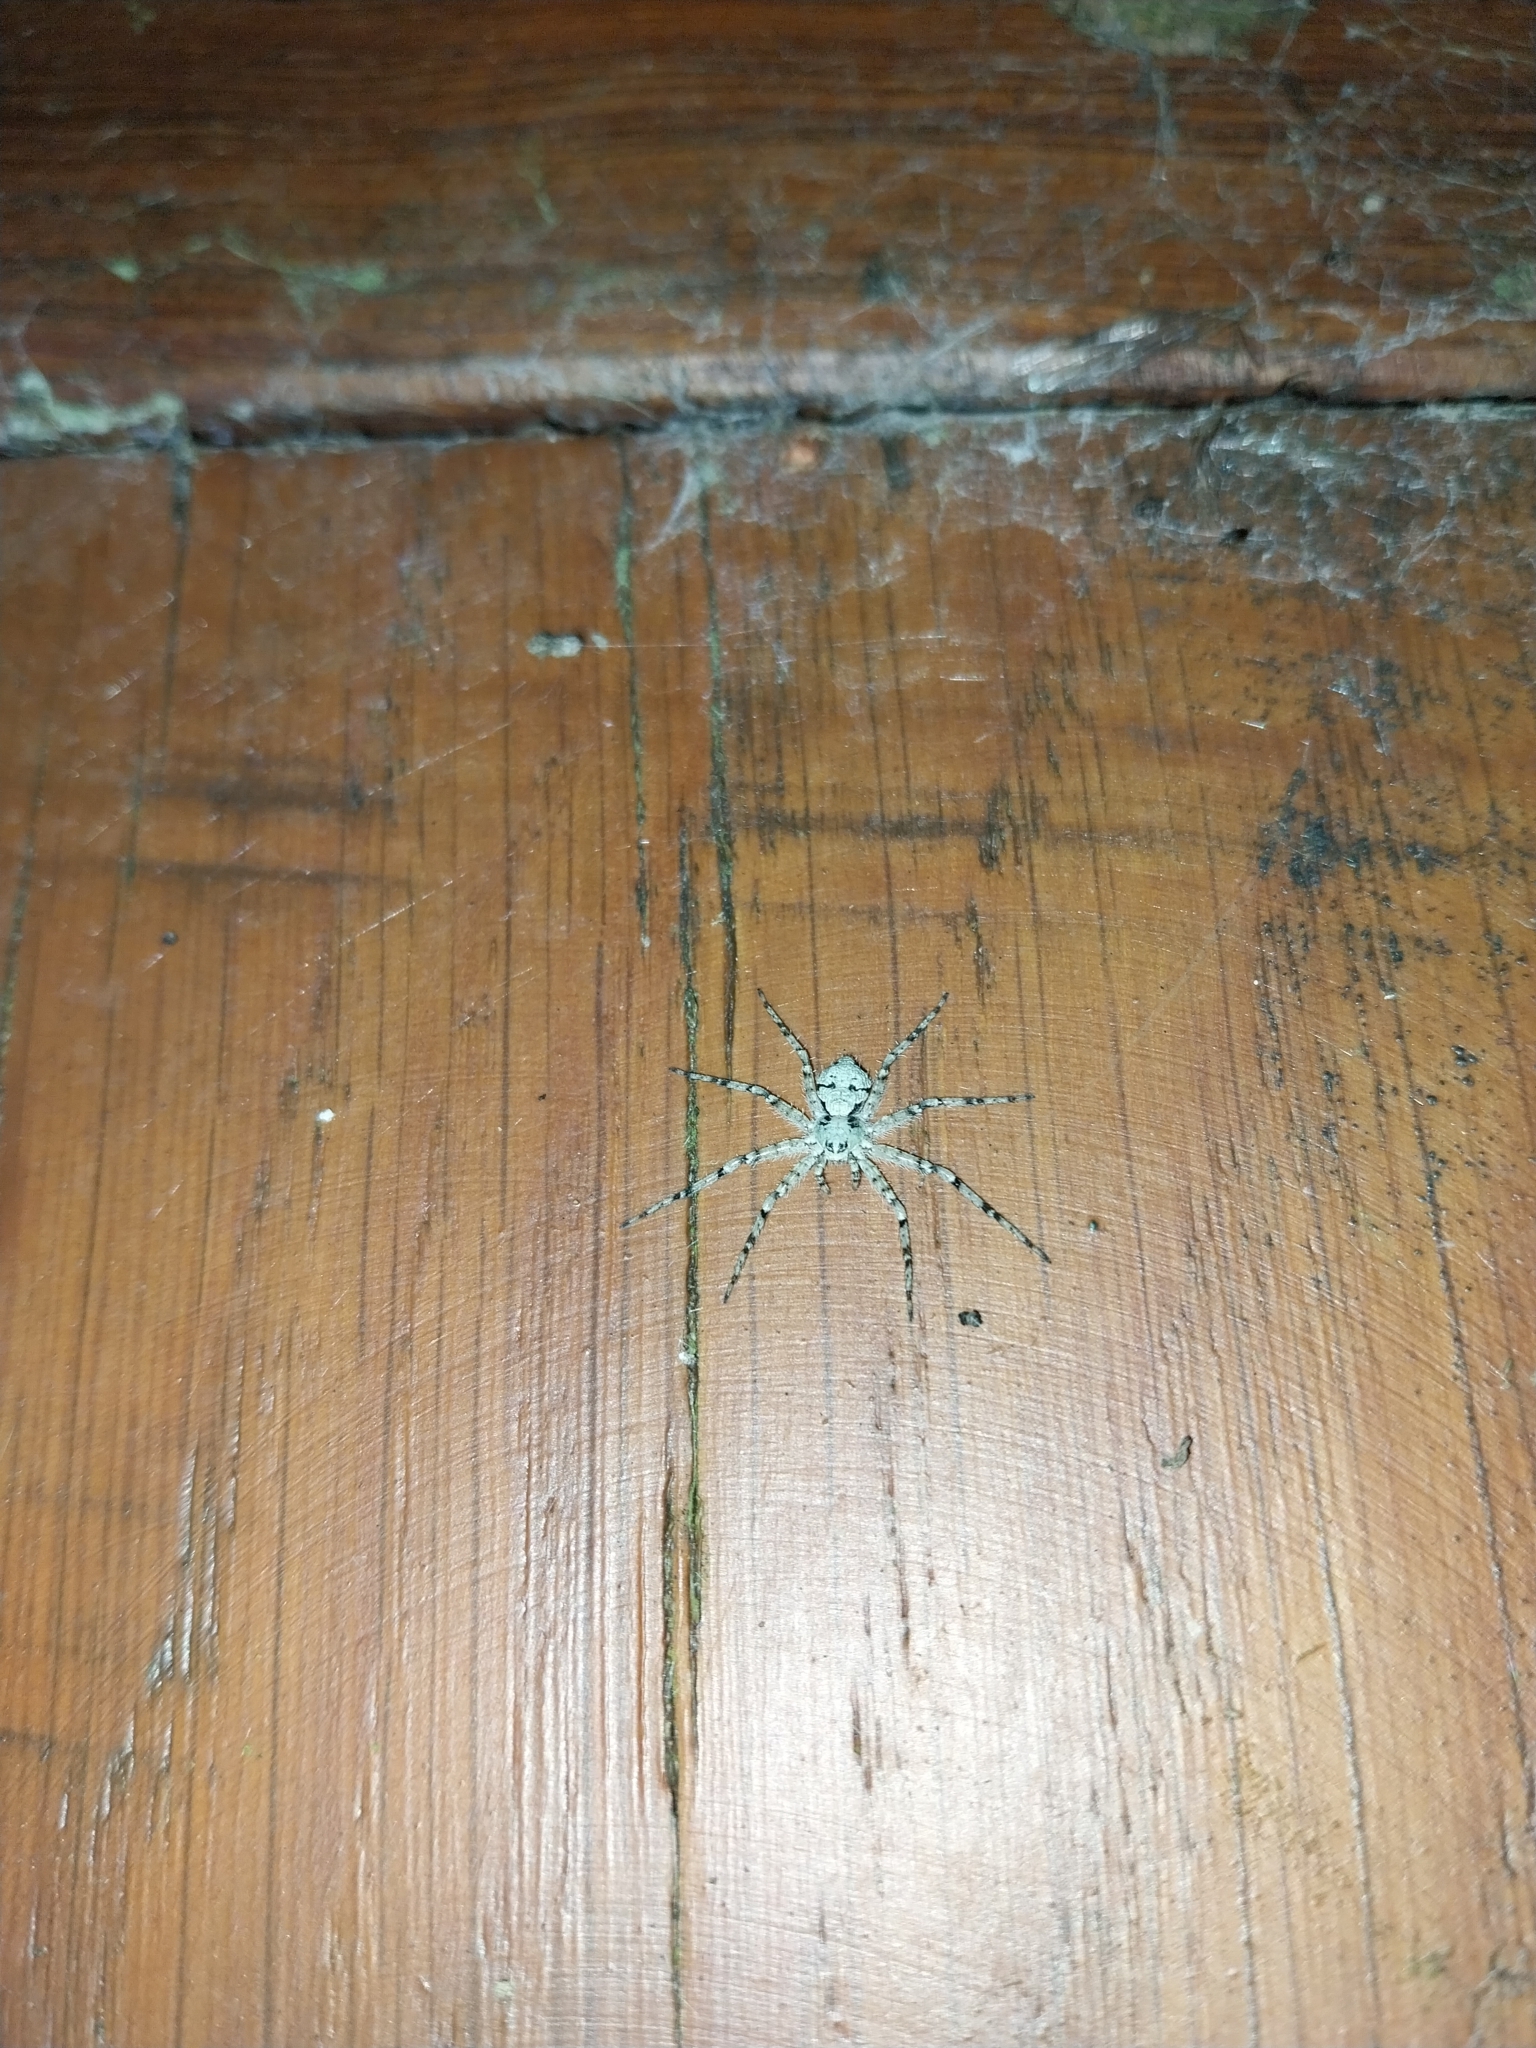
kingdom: Animalia
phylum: Arthropoda
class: Arachnida
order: Araneae
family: Philodromidae
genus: Philodromus
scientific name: Philodromus margaritatus
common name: Lichen running-spider
